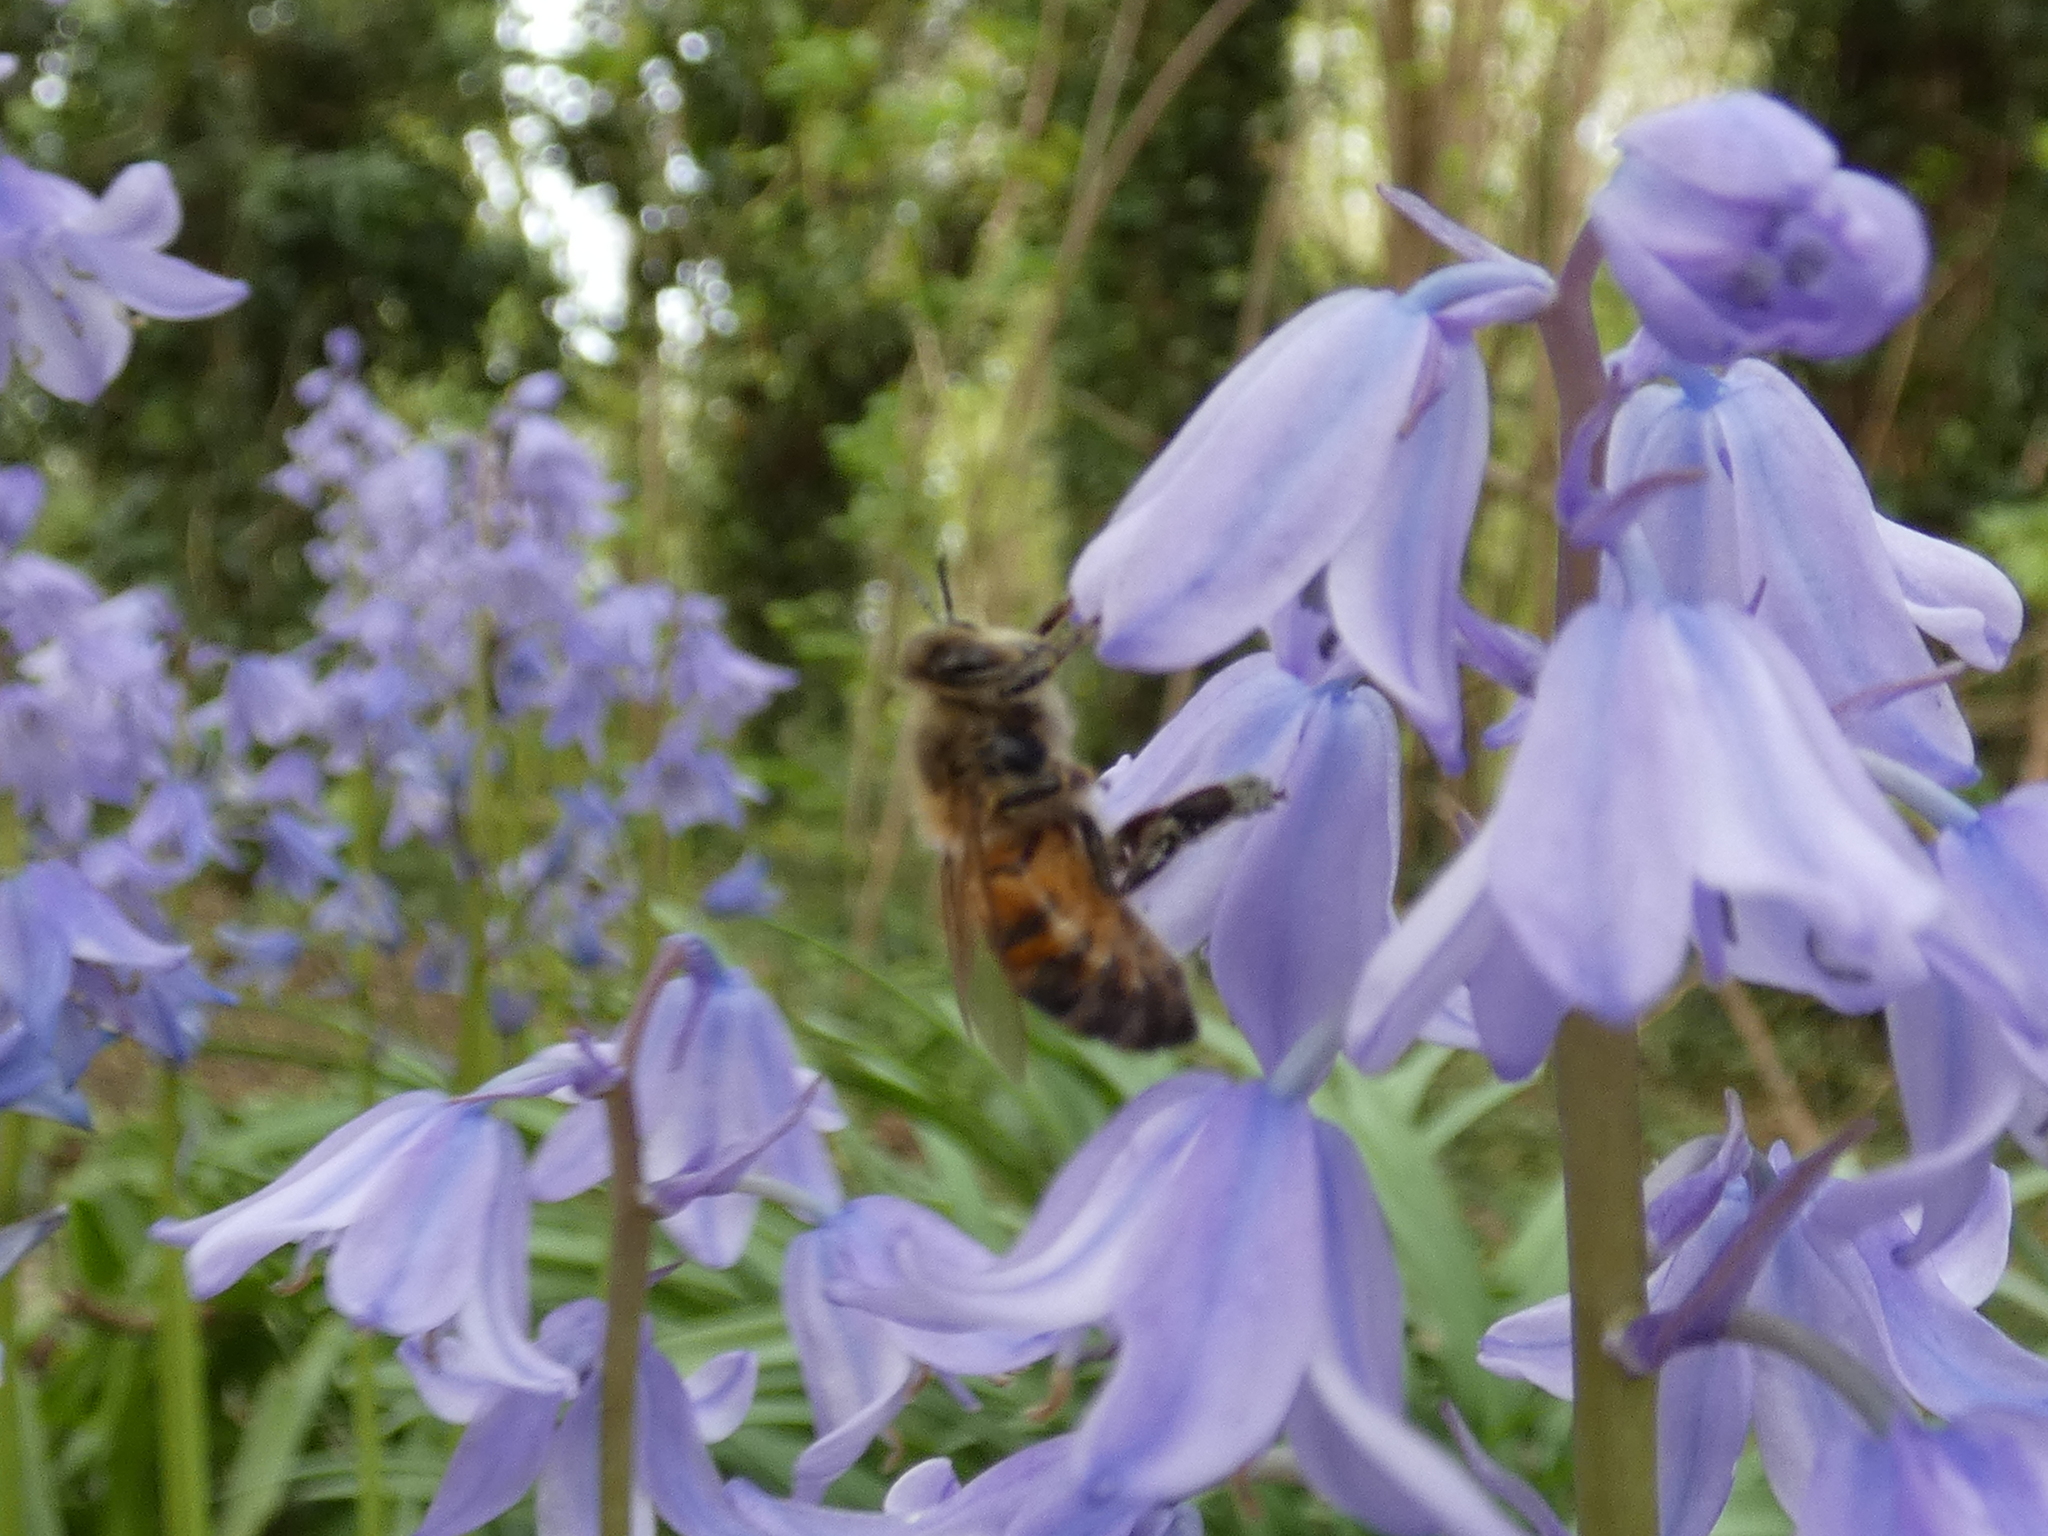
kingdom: Animalia
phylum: Arthropoda
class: Insecta
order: Hymenoptera
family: Apidae
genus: Apis
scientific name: Apis mellifera
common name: Honey bee
